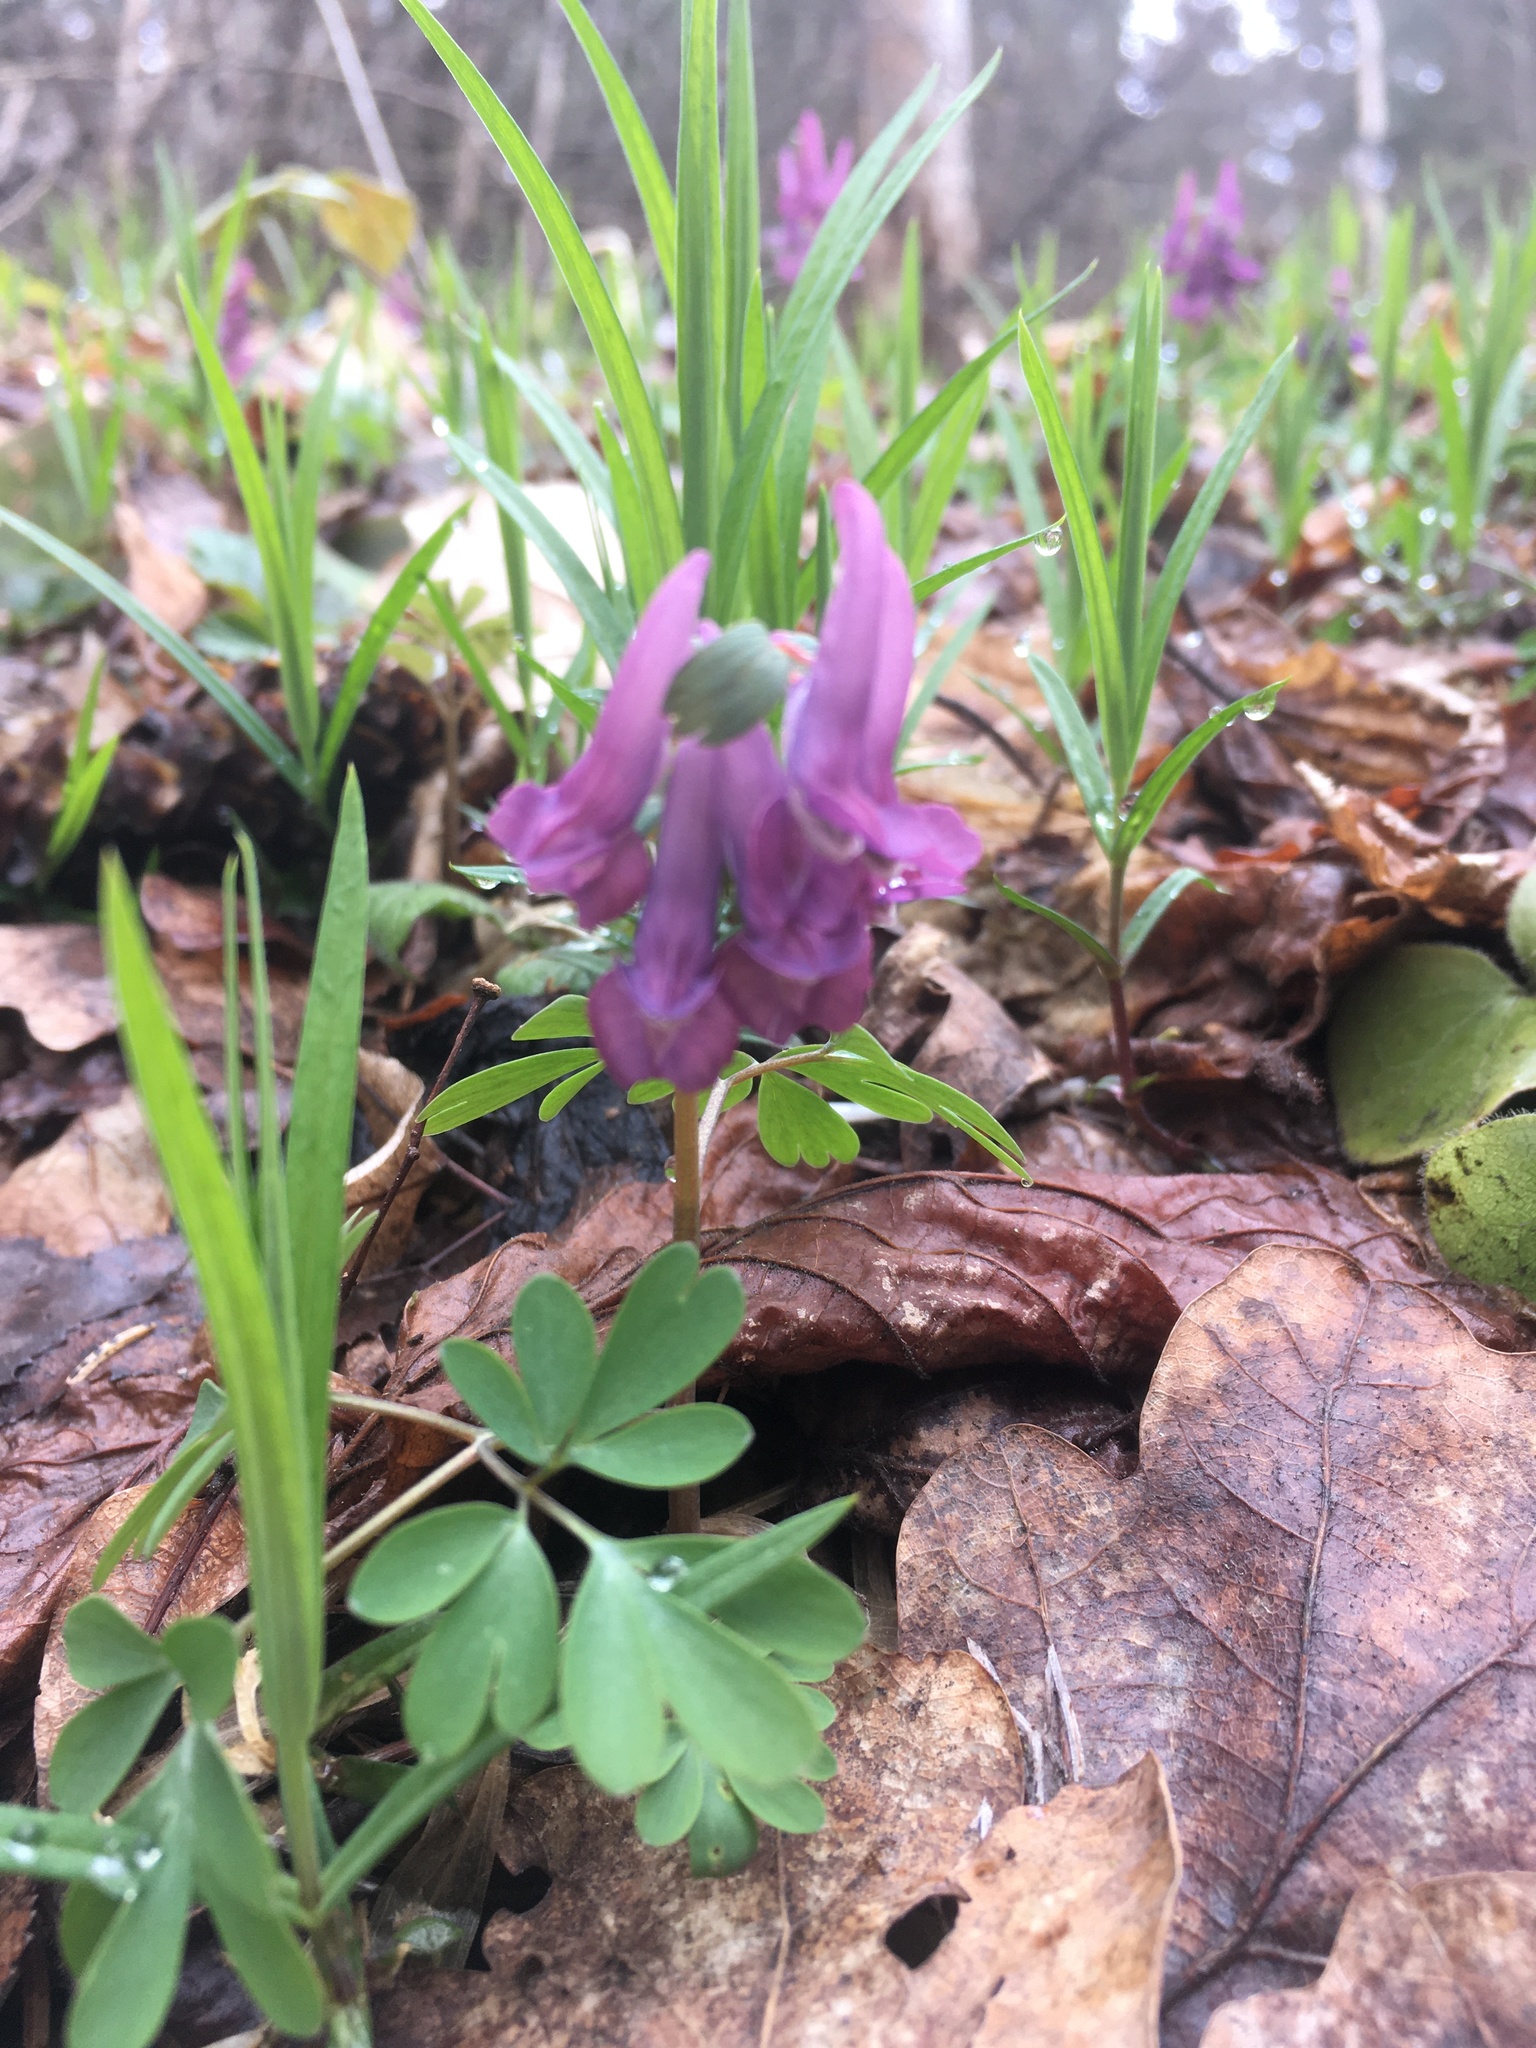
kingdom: Plantae
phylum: Tracheophyta
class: Magnoliopsida
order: Ranunculales
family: Papaveraceae
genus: Corydalis
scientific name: Corydalis solida
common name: Bird-in-a-bush
